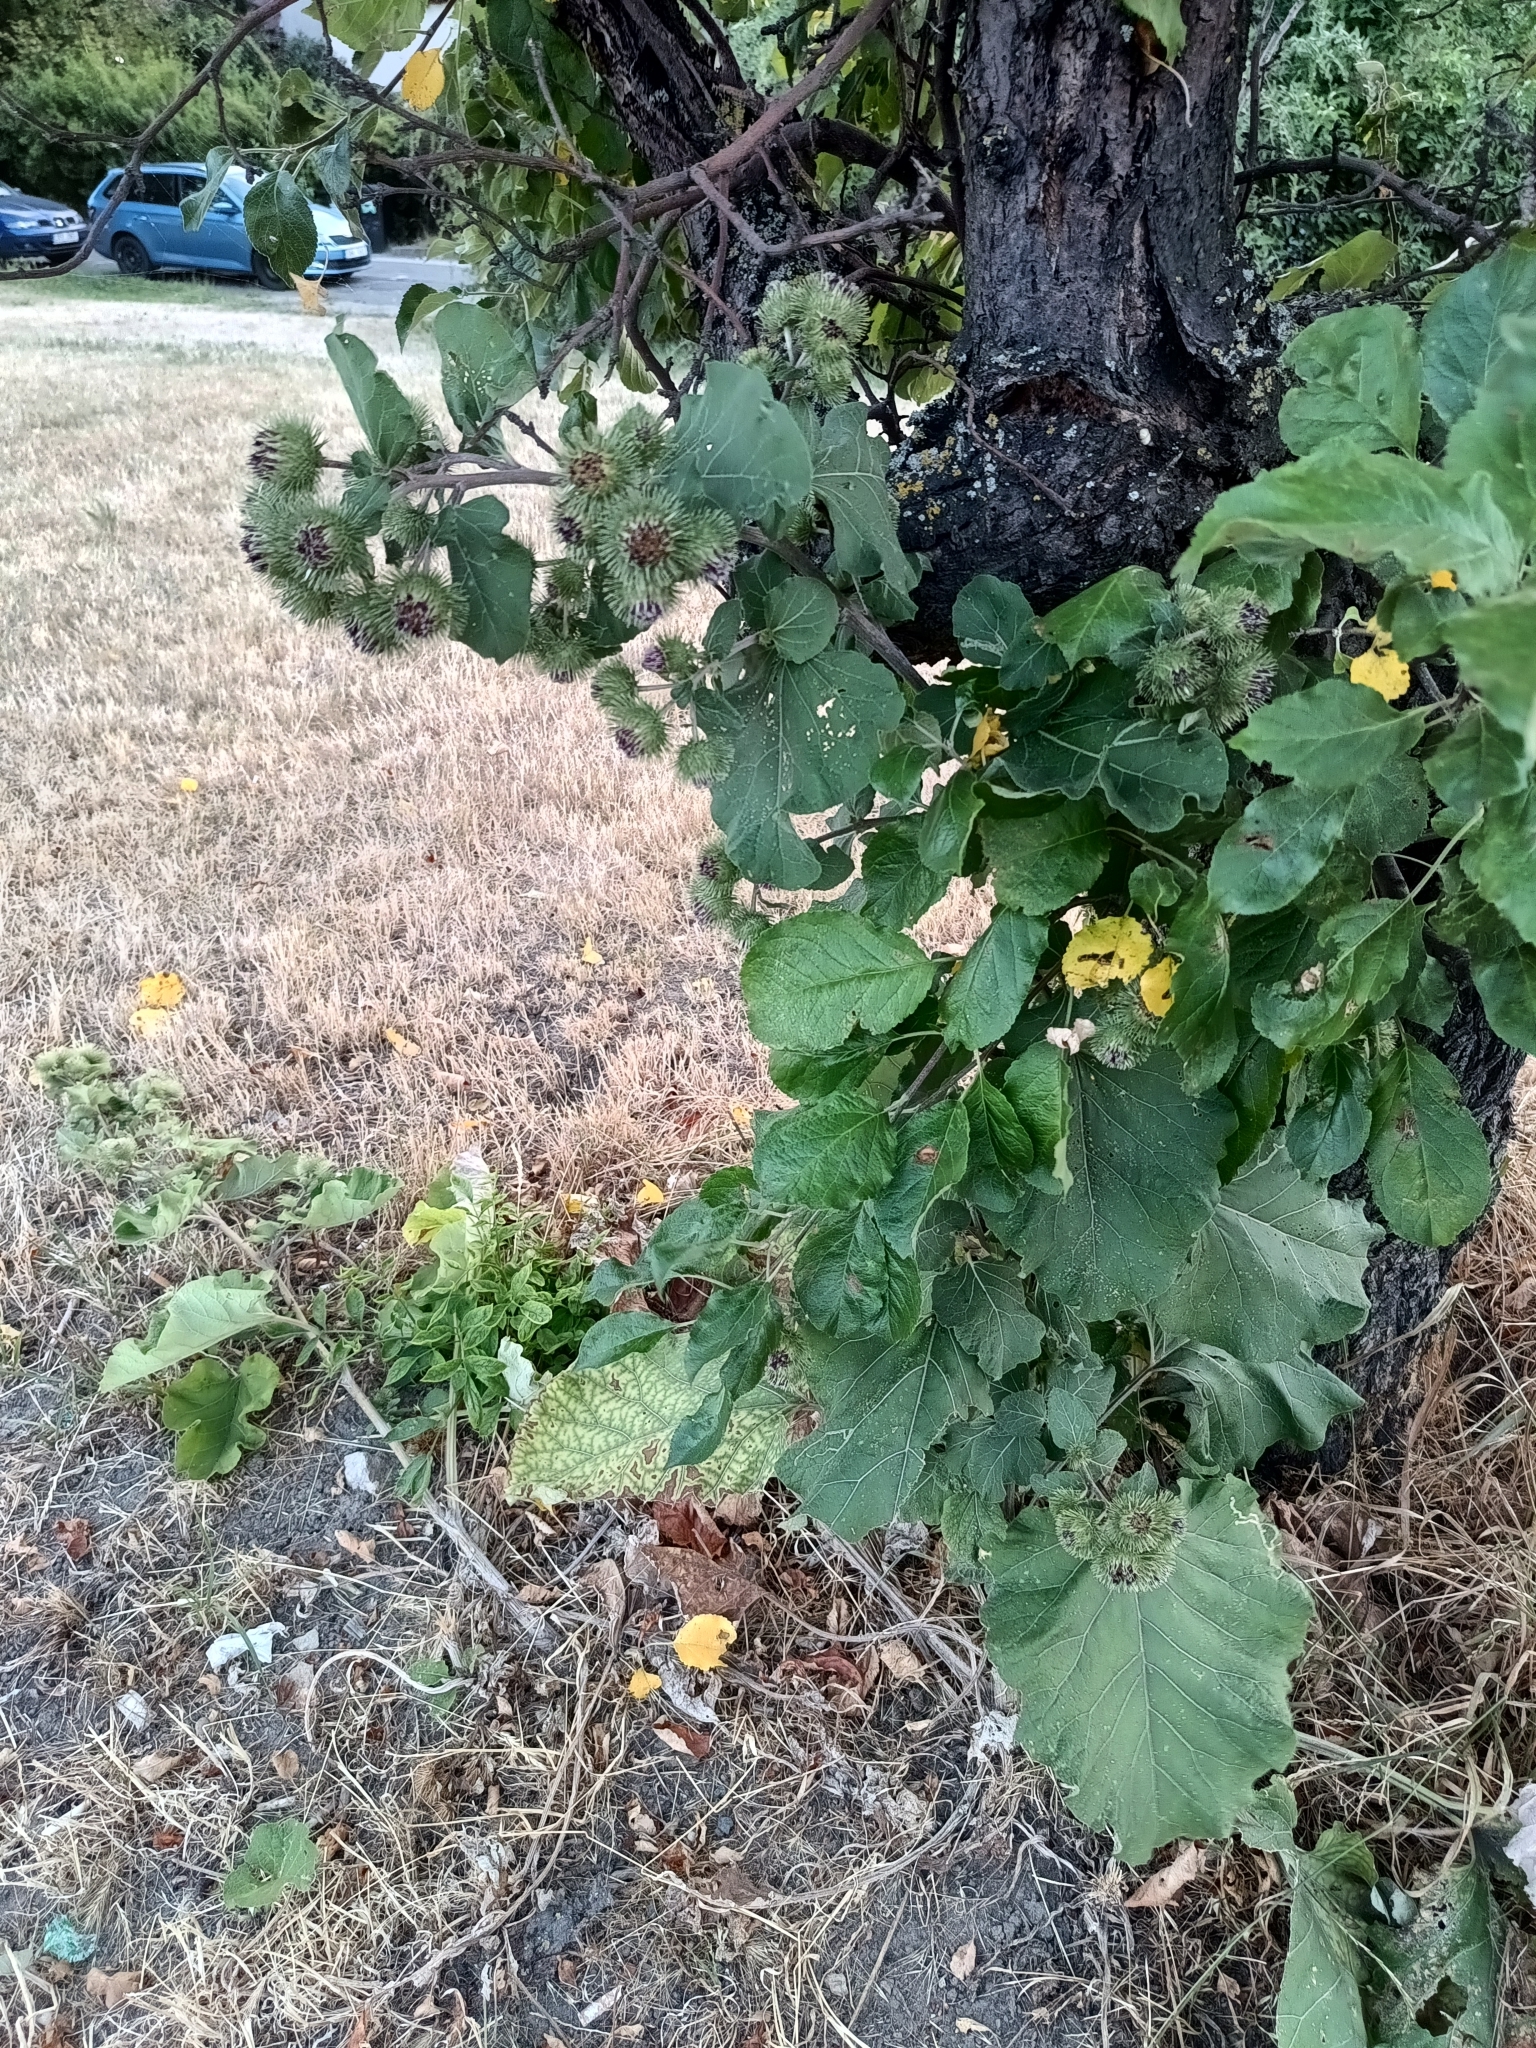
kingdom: Plantae
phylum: Tracheophyta
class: Magnoliopsida
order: Asterales
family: Asteraceae
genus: Arctium
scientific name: Arctium lappa
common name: Greater burdock
